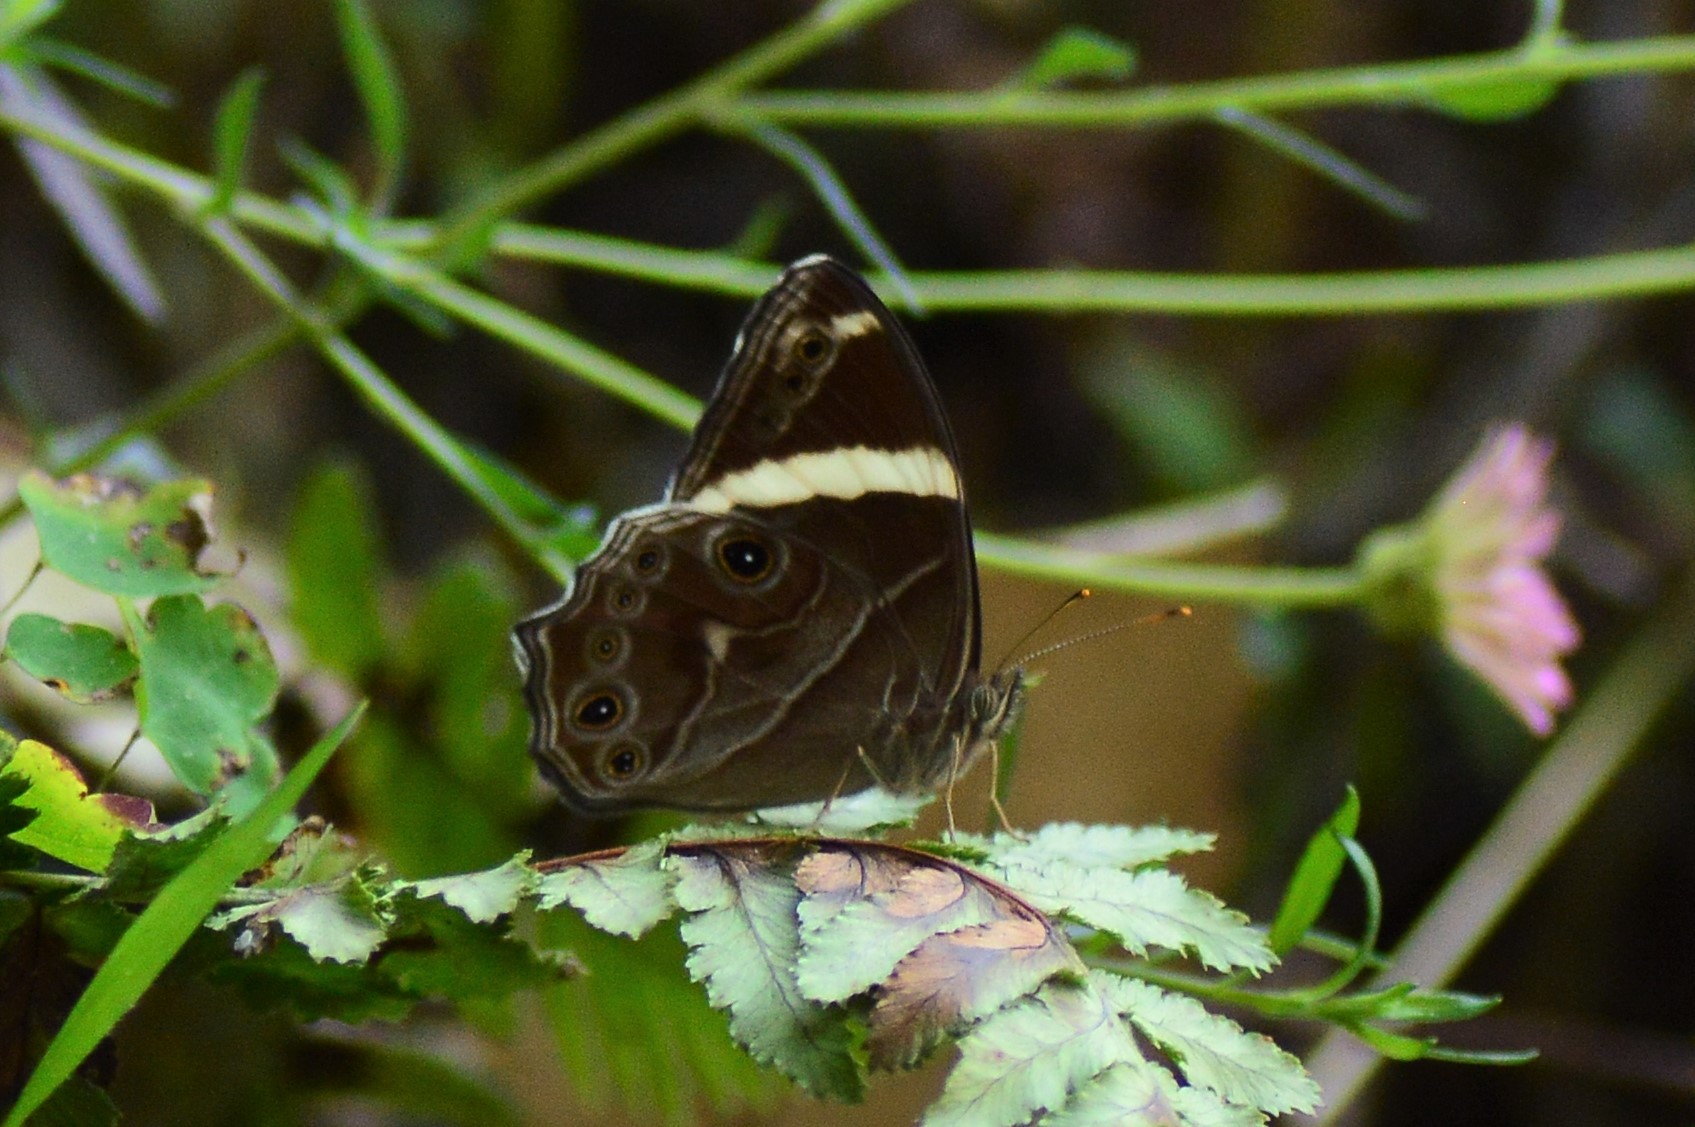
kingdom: Animalia
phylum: Arthropoda
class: Insecta
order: Lepidoptera
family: Nymphalidae
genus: Lethe
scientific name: Lethe confusa
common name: Banded treebrown
